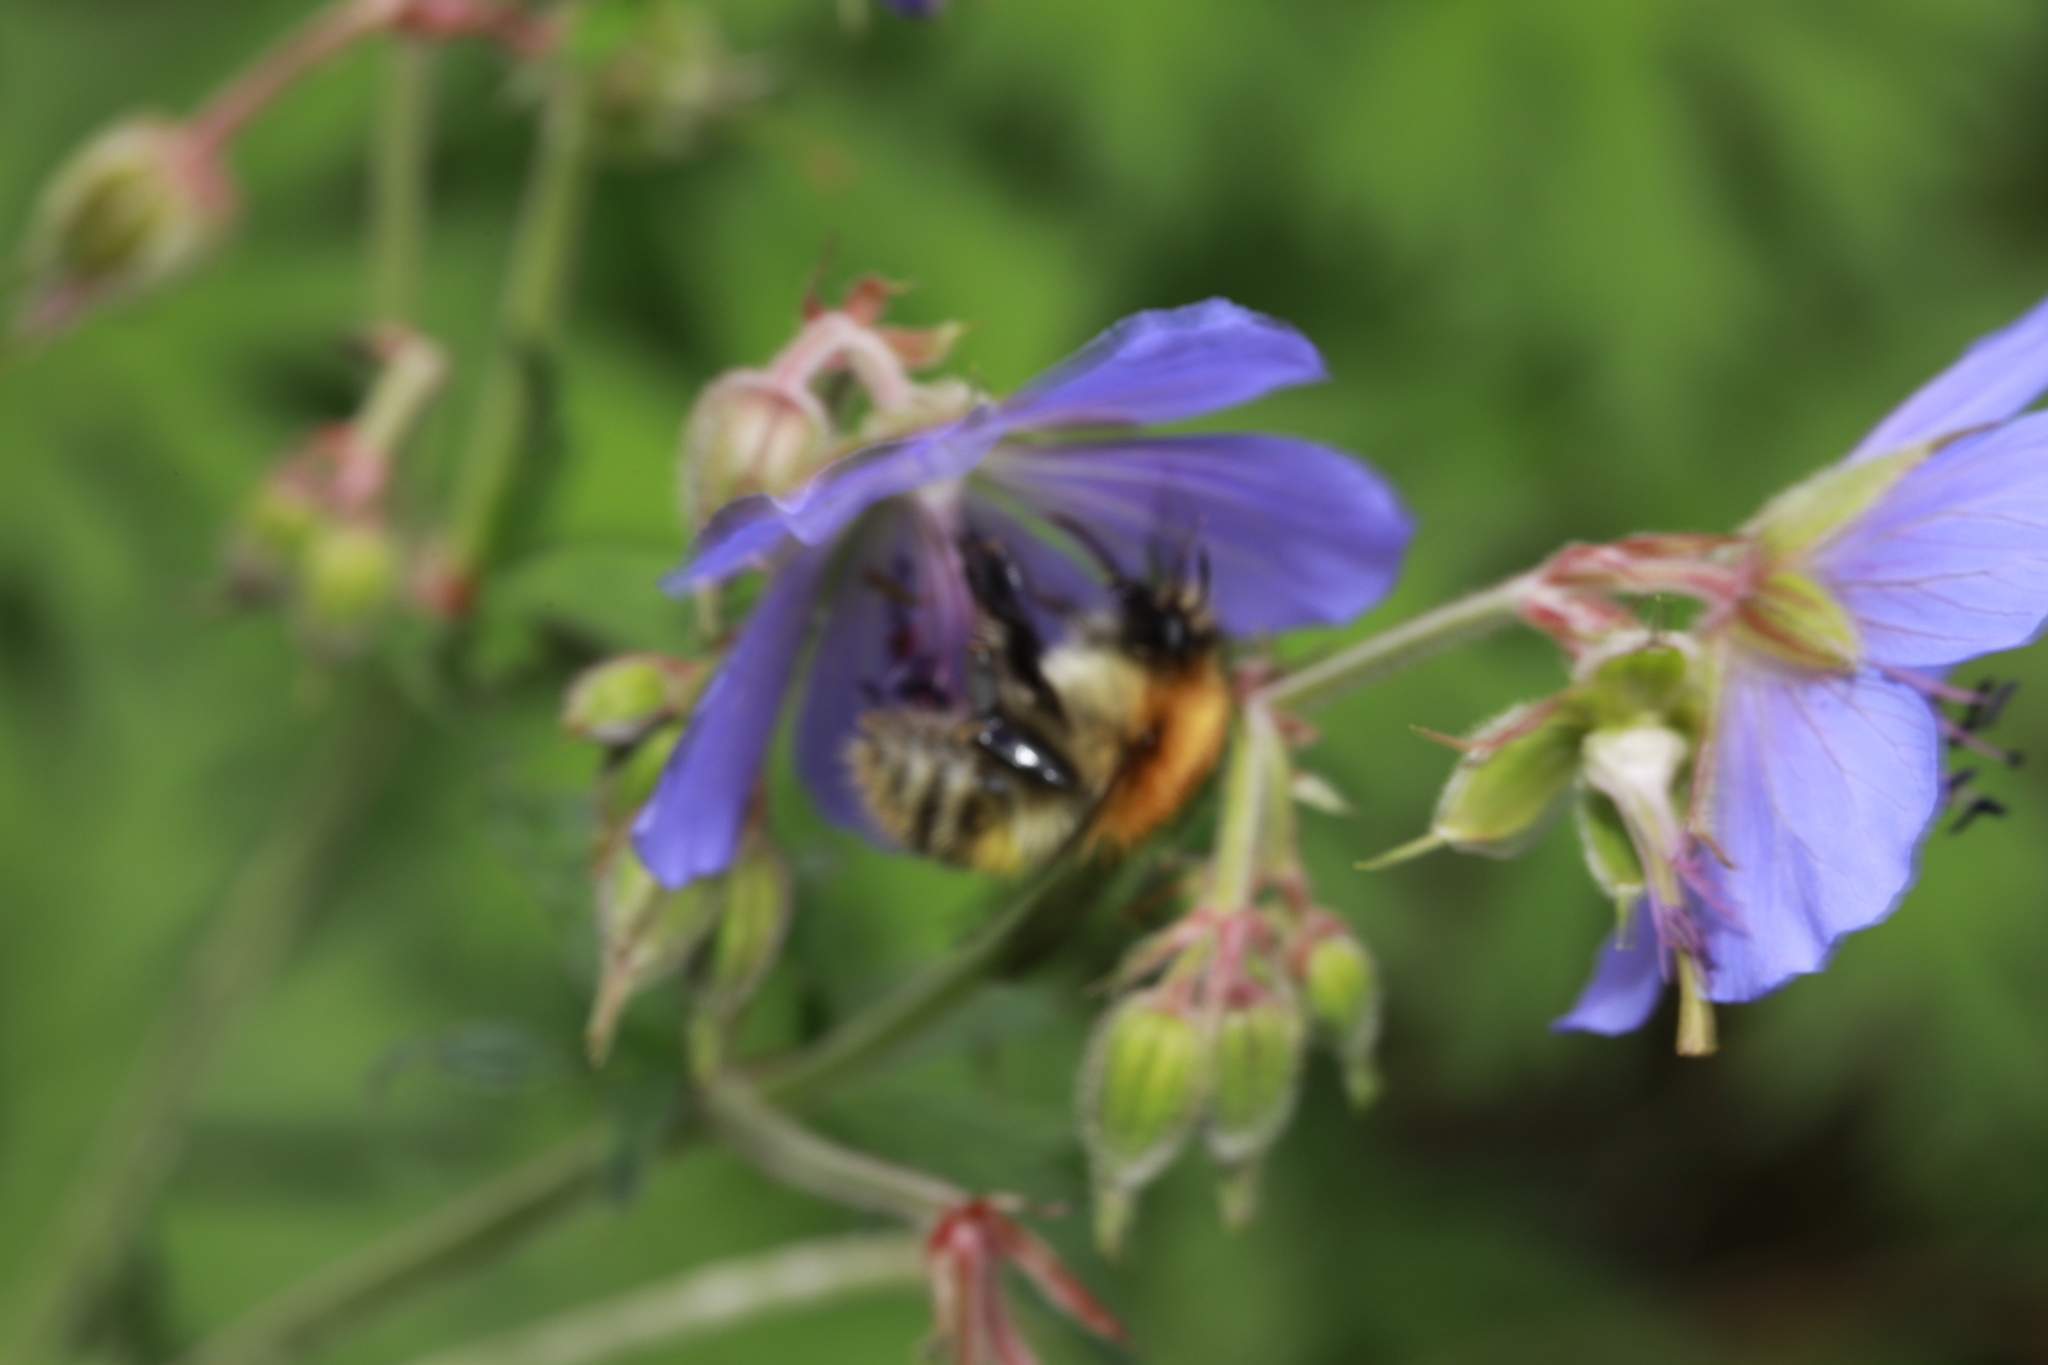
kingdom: Plantae
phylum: Tracheophyta
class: Magnoliopsida
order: Geraniales
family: Geraniaceae
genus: Geranium
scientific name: Geranium pratense
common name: Meadow crane's-bill
